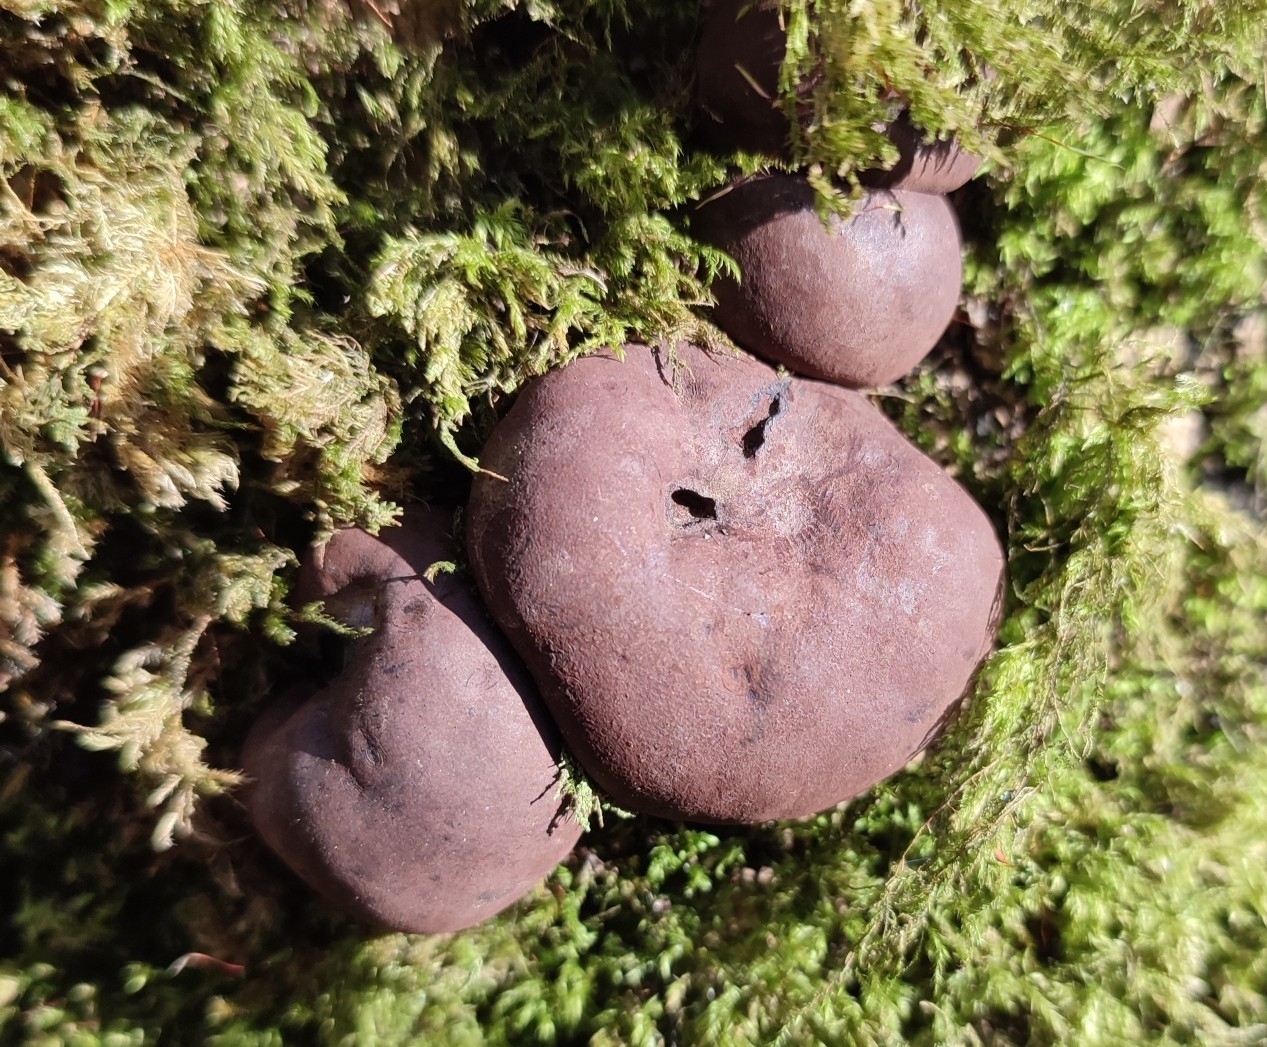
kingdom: Fungi
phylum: Ascomycota
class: Sordariomycetes
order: Xylariales
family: Hypoxylaceae
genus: Daldinia
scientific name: Daldinia concentrica
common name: Cramp balls
